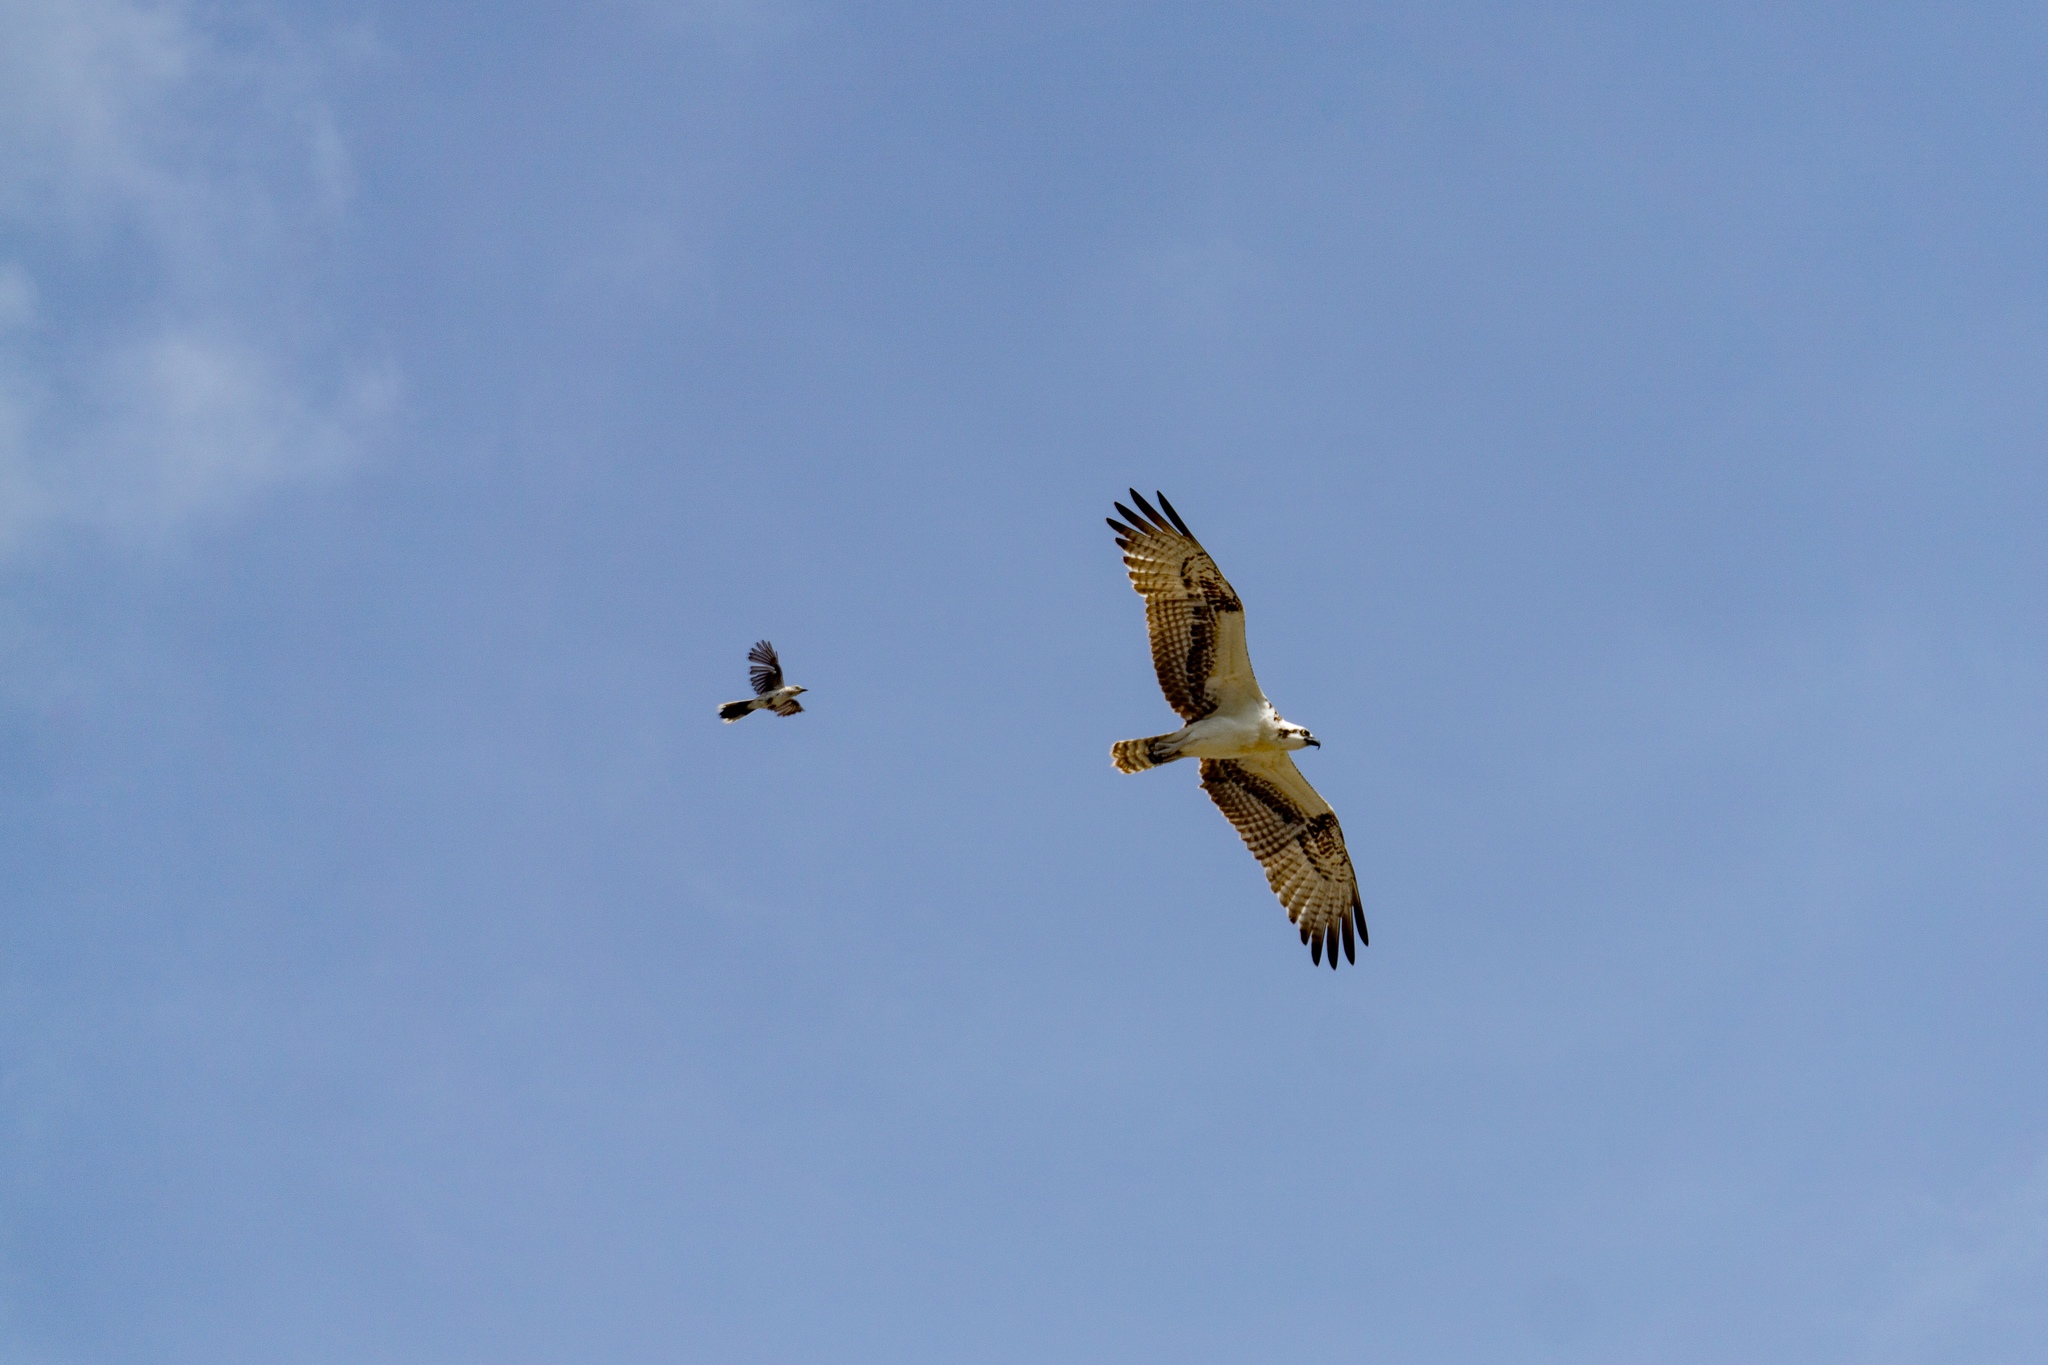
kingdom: Animalia
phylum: Chordata
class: Aves
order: Accipitriformes
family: Pandionidae
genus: Pandion
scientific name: Pandion haliaetus
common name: Osprey
